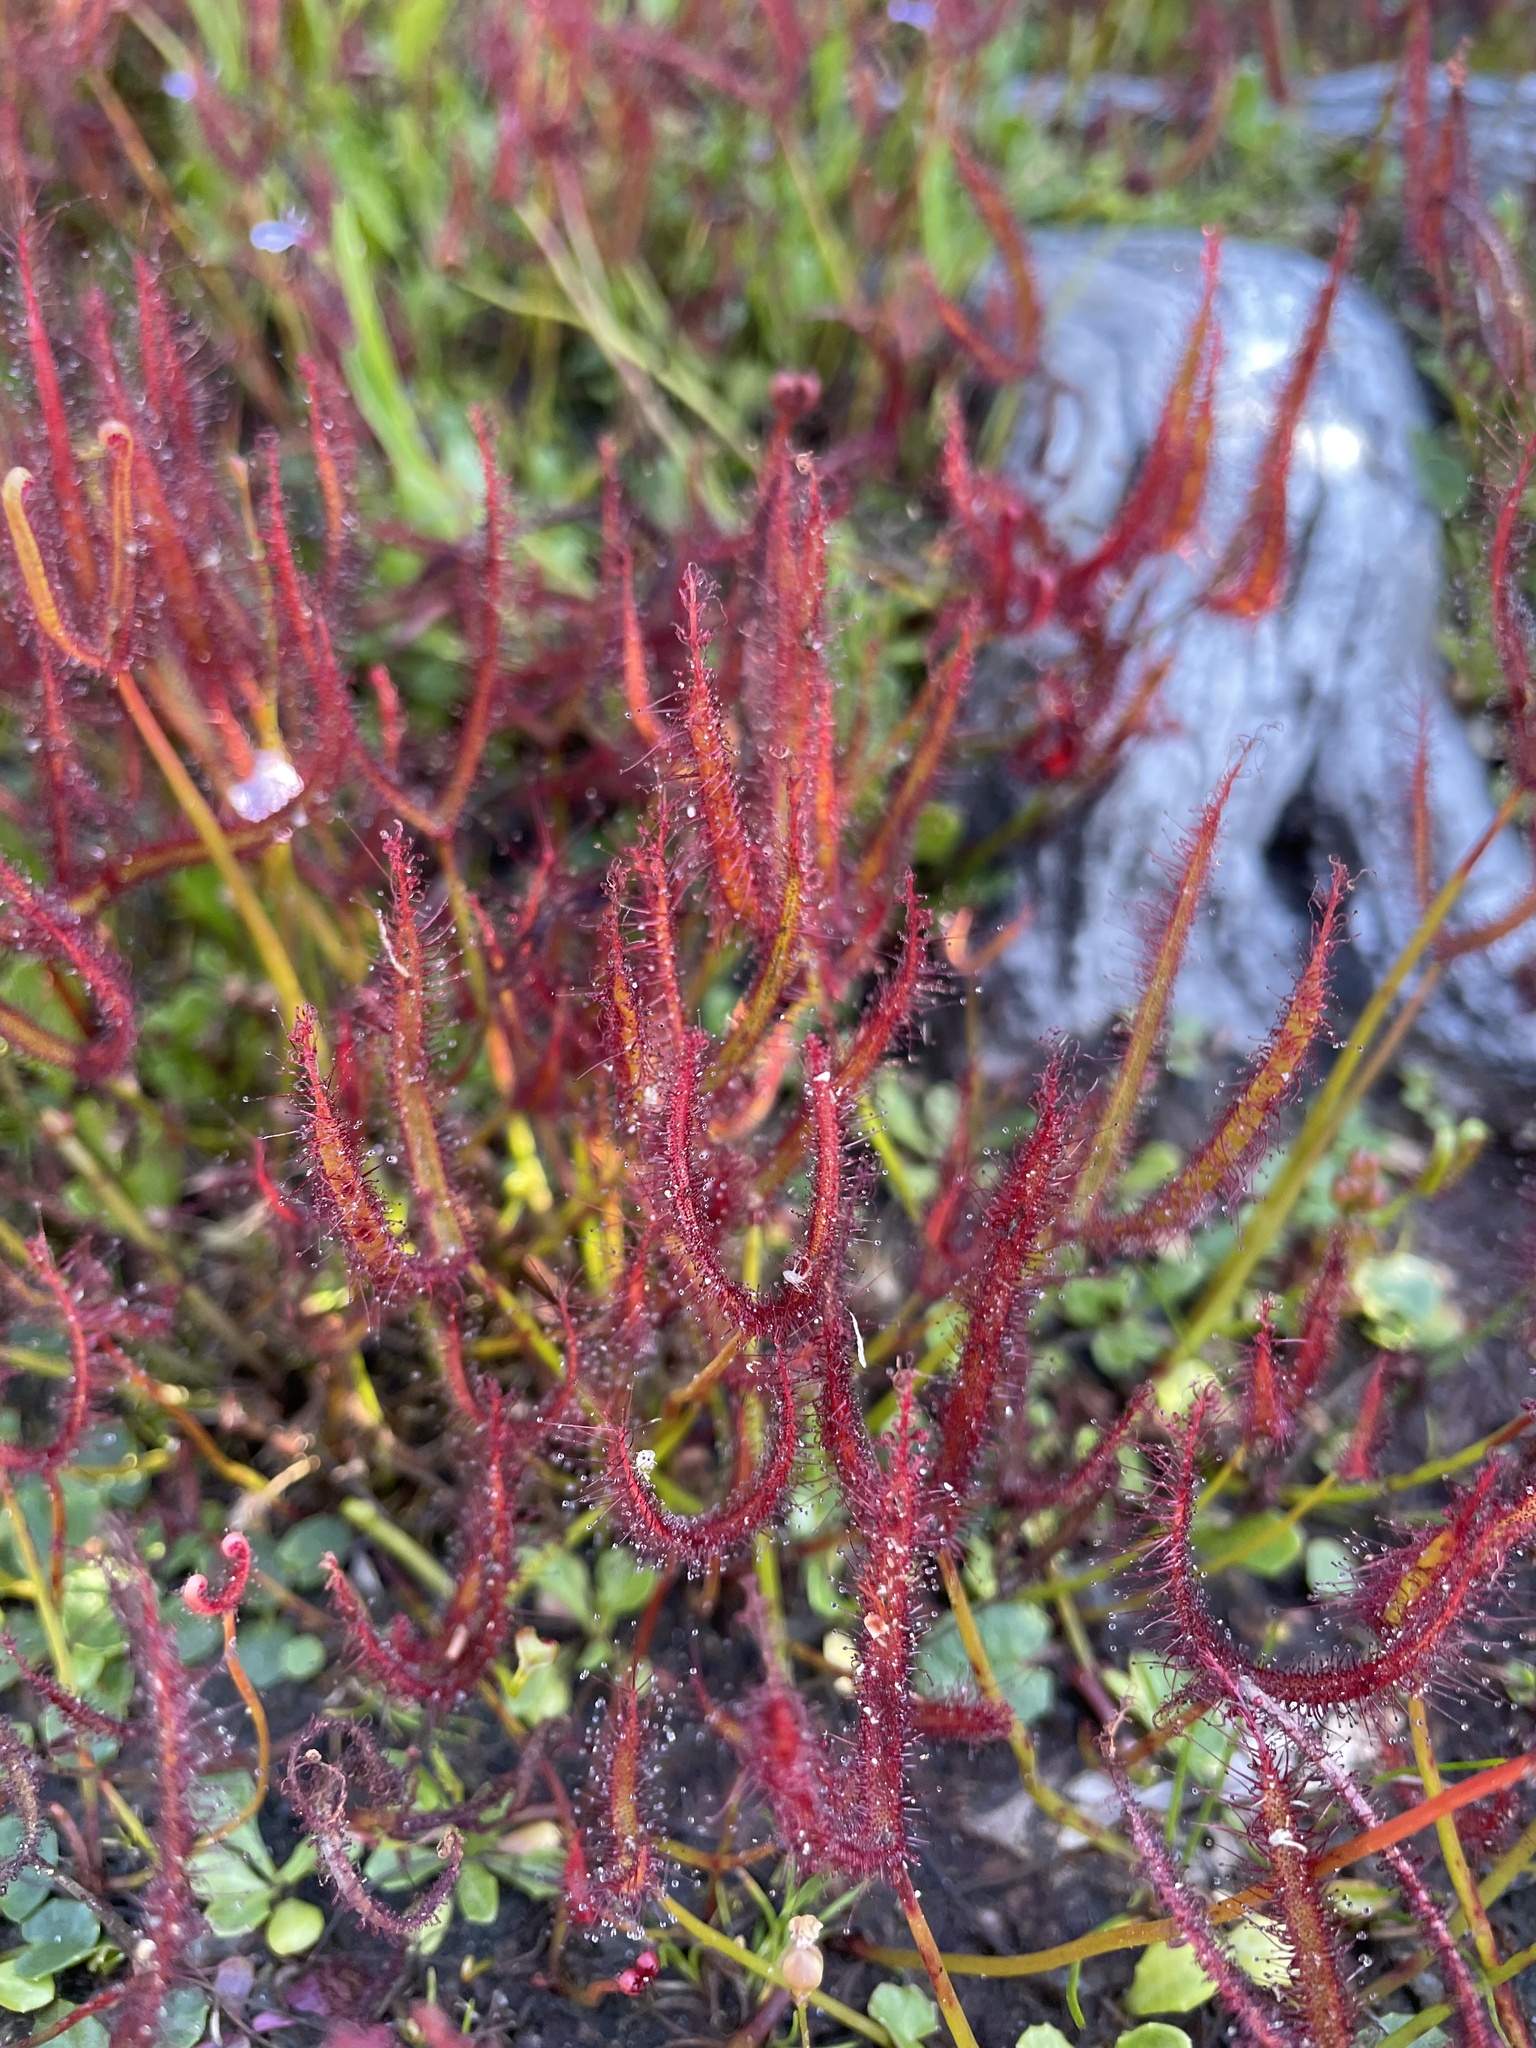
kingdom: Plantae
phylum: Tracheophyta
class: Magnoliopsida
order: Caryophyllales
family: Droseraceae
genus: Drosera
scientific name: Drosera binata
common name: Forked sundew
